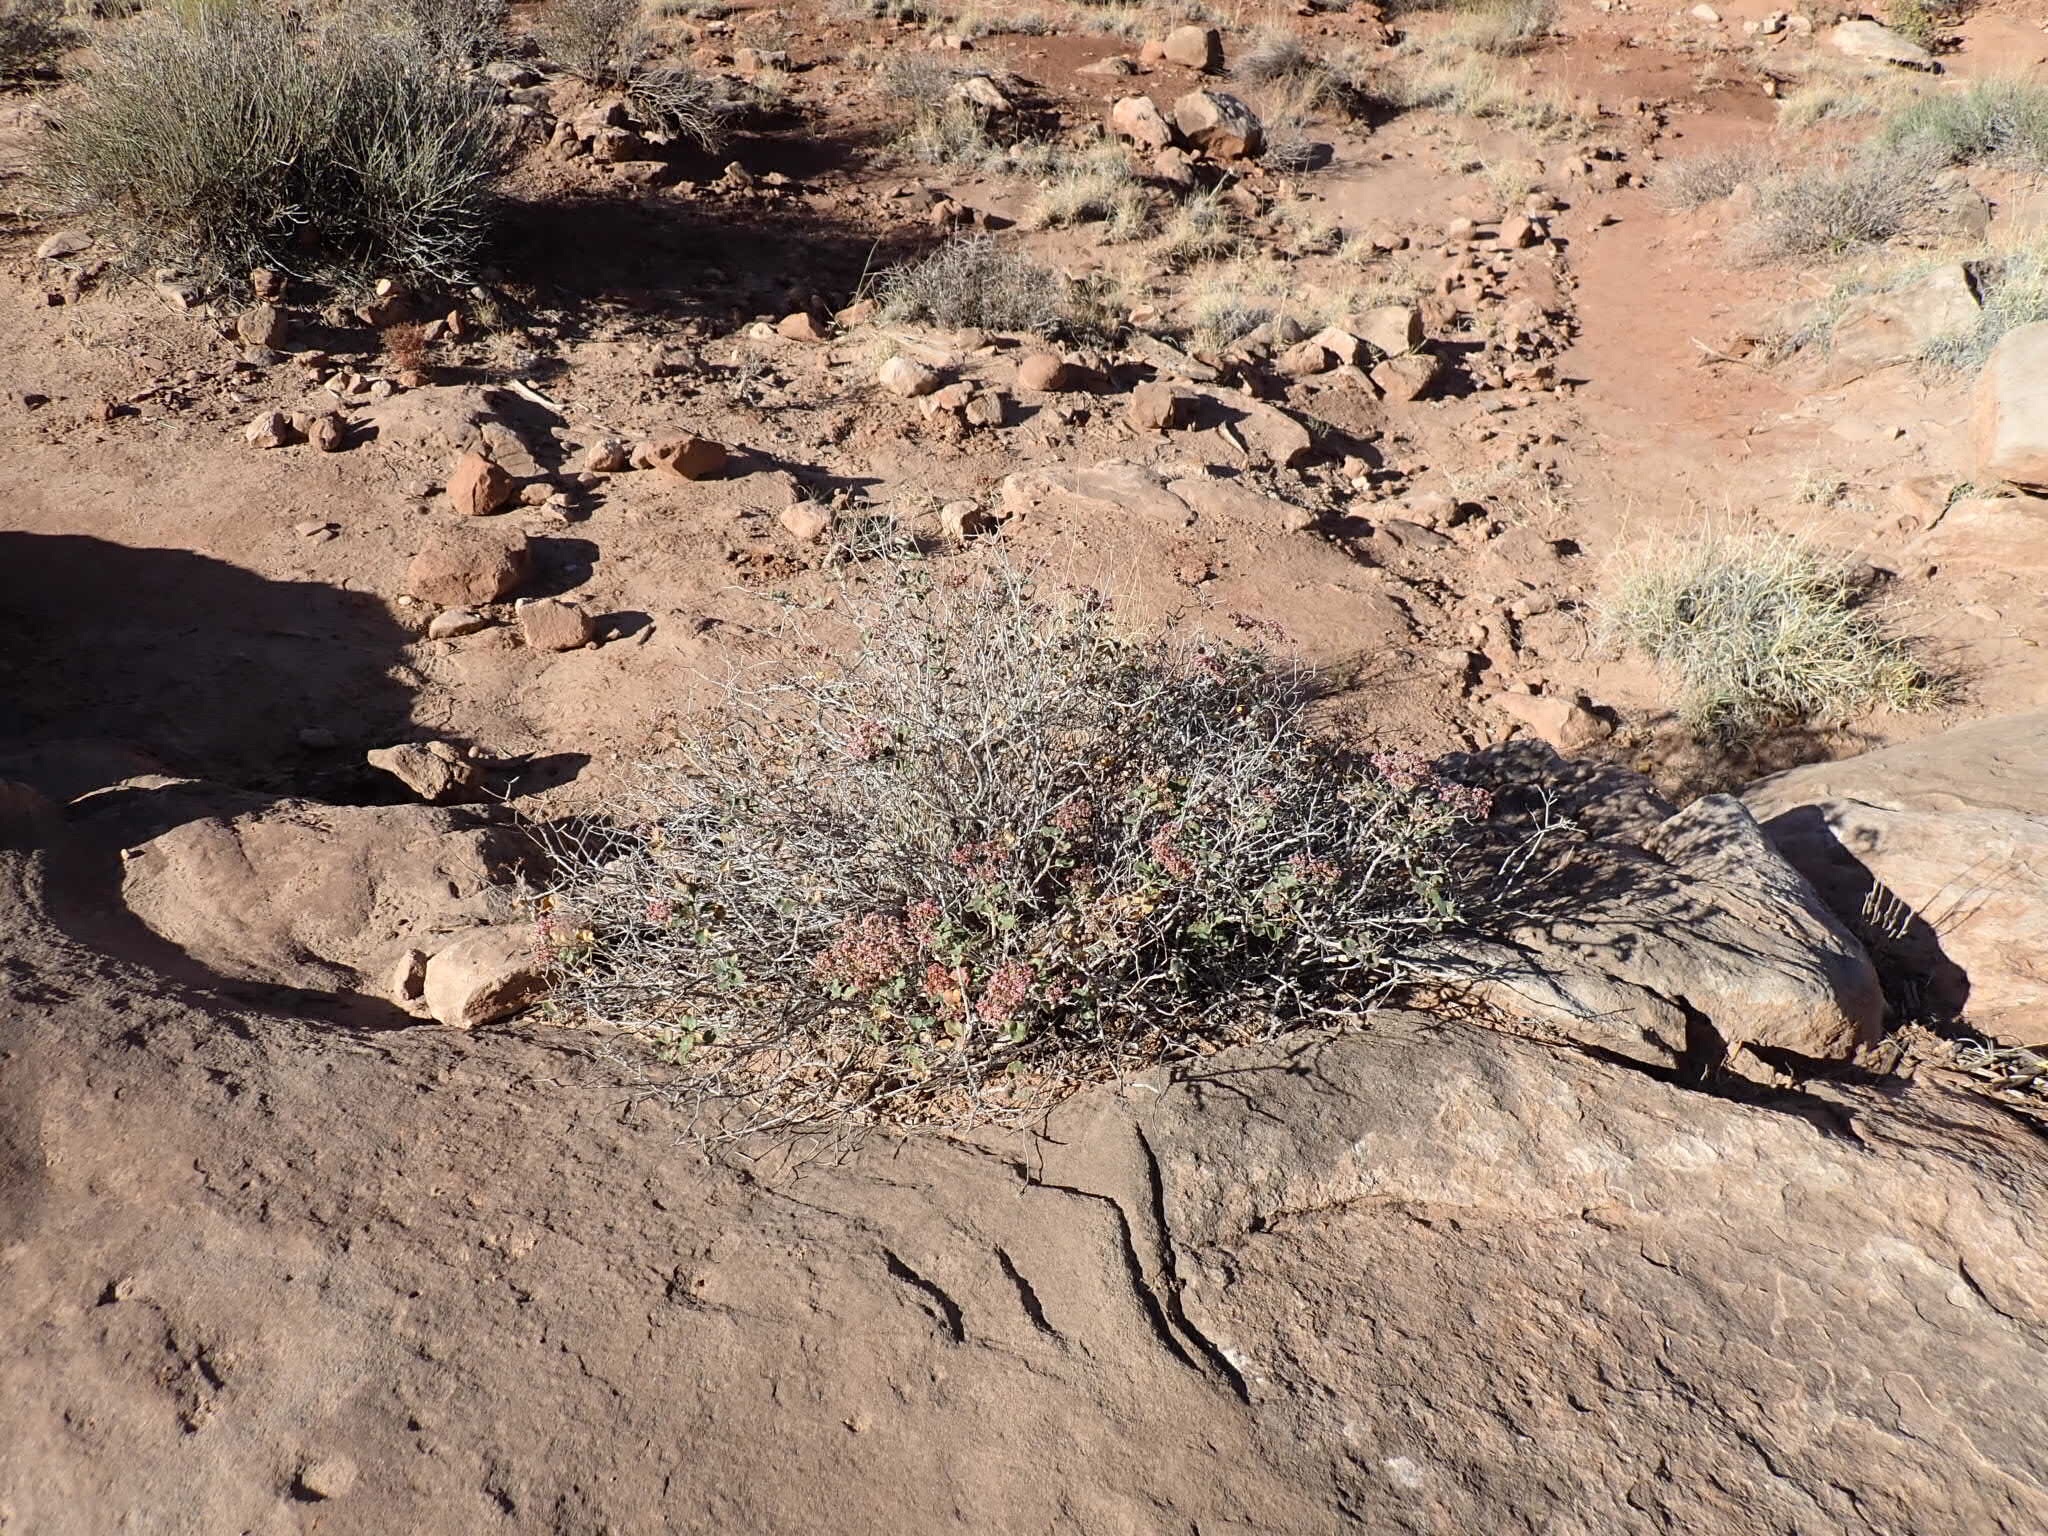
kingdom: Plantae
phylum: Tracheophyta
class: Magnoliopsida
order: Caryophyllales
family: Polygonaceae
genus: Eriogonum
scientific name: Eriogonum corymbosum
